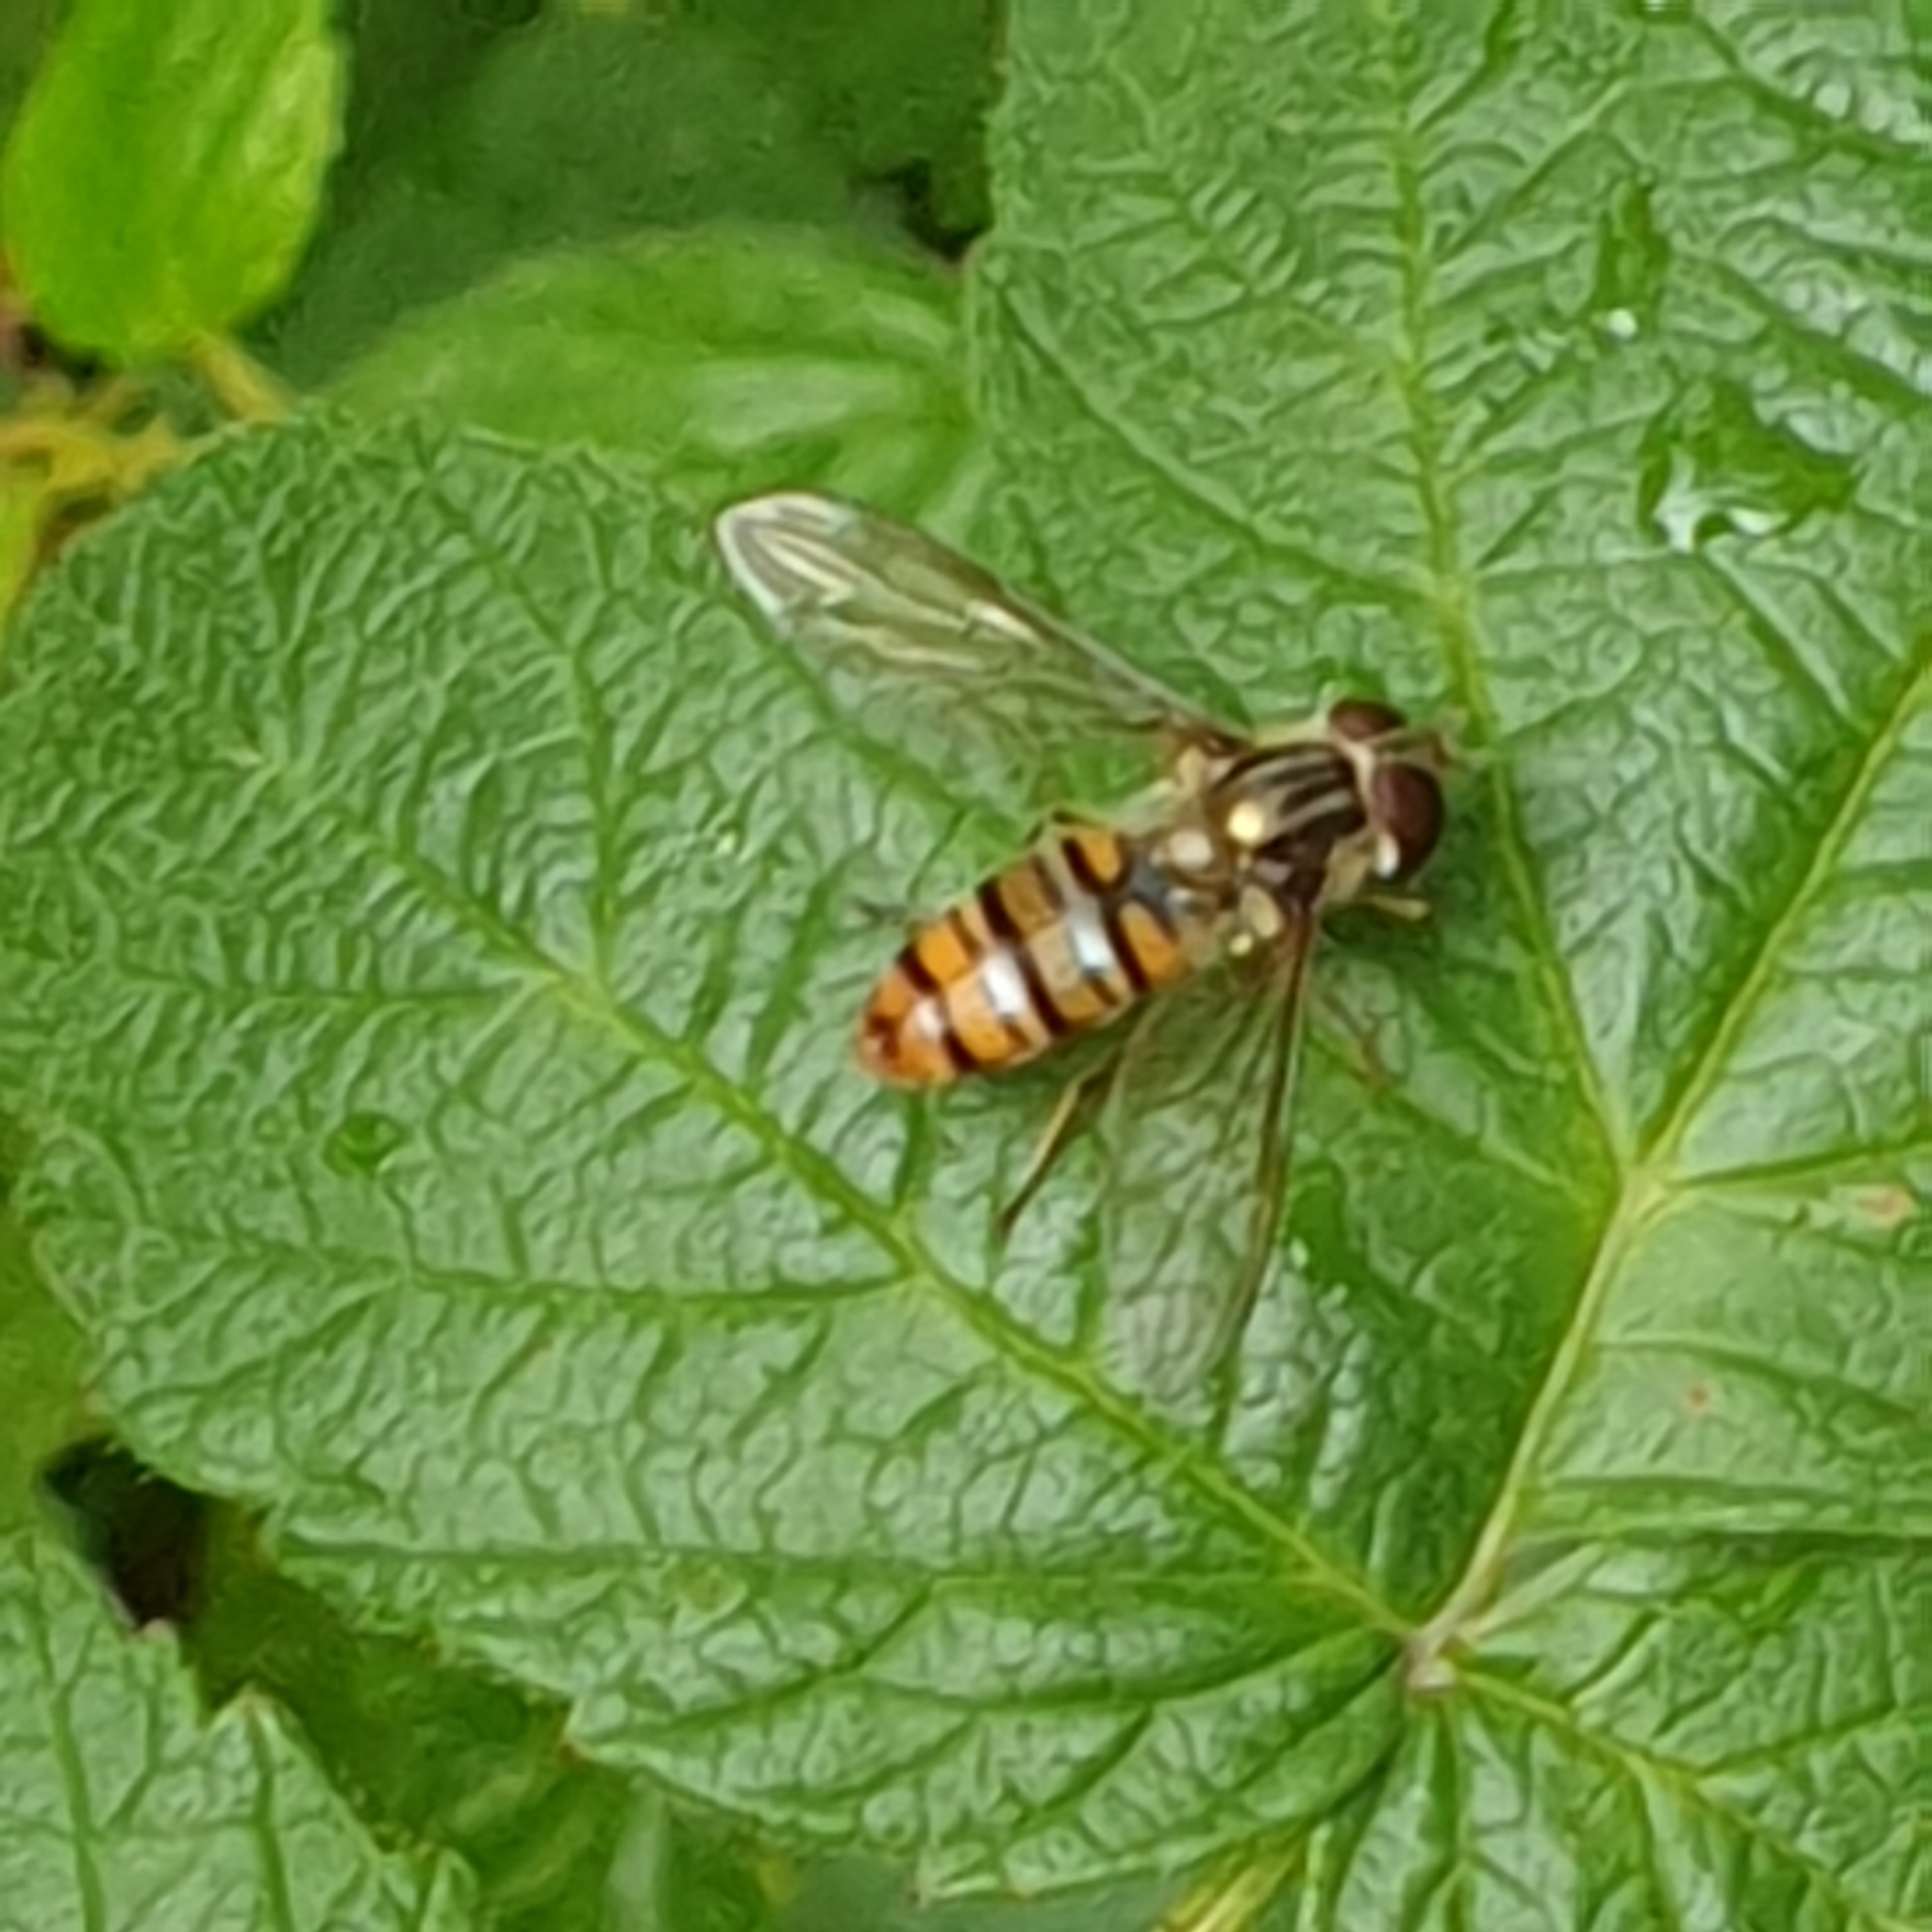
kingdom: Animalia
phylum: Arthropoda
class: Insecta
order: Diptera
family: Syrphidae
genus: Episyrphus
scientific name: Episyrphus balteatus
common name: Marmalade hoverfly
